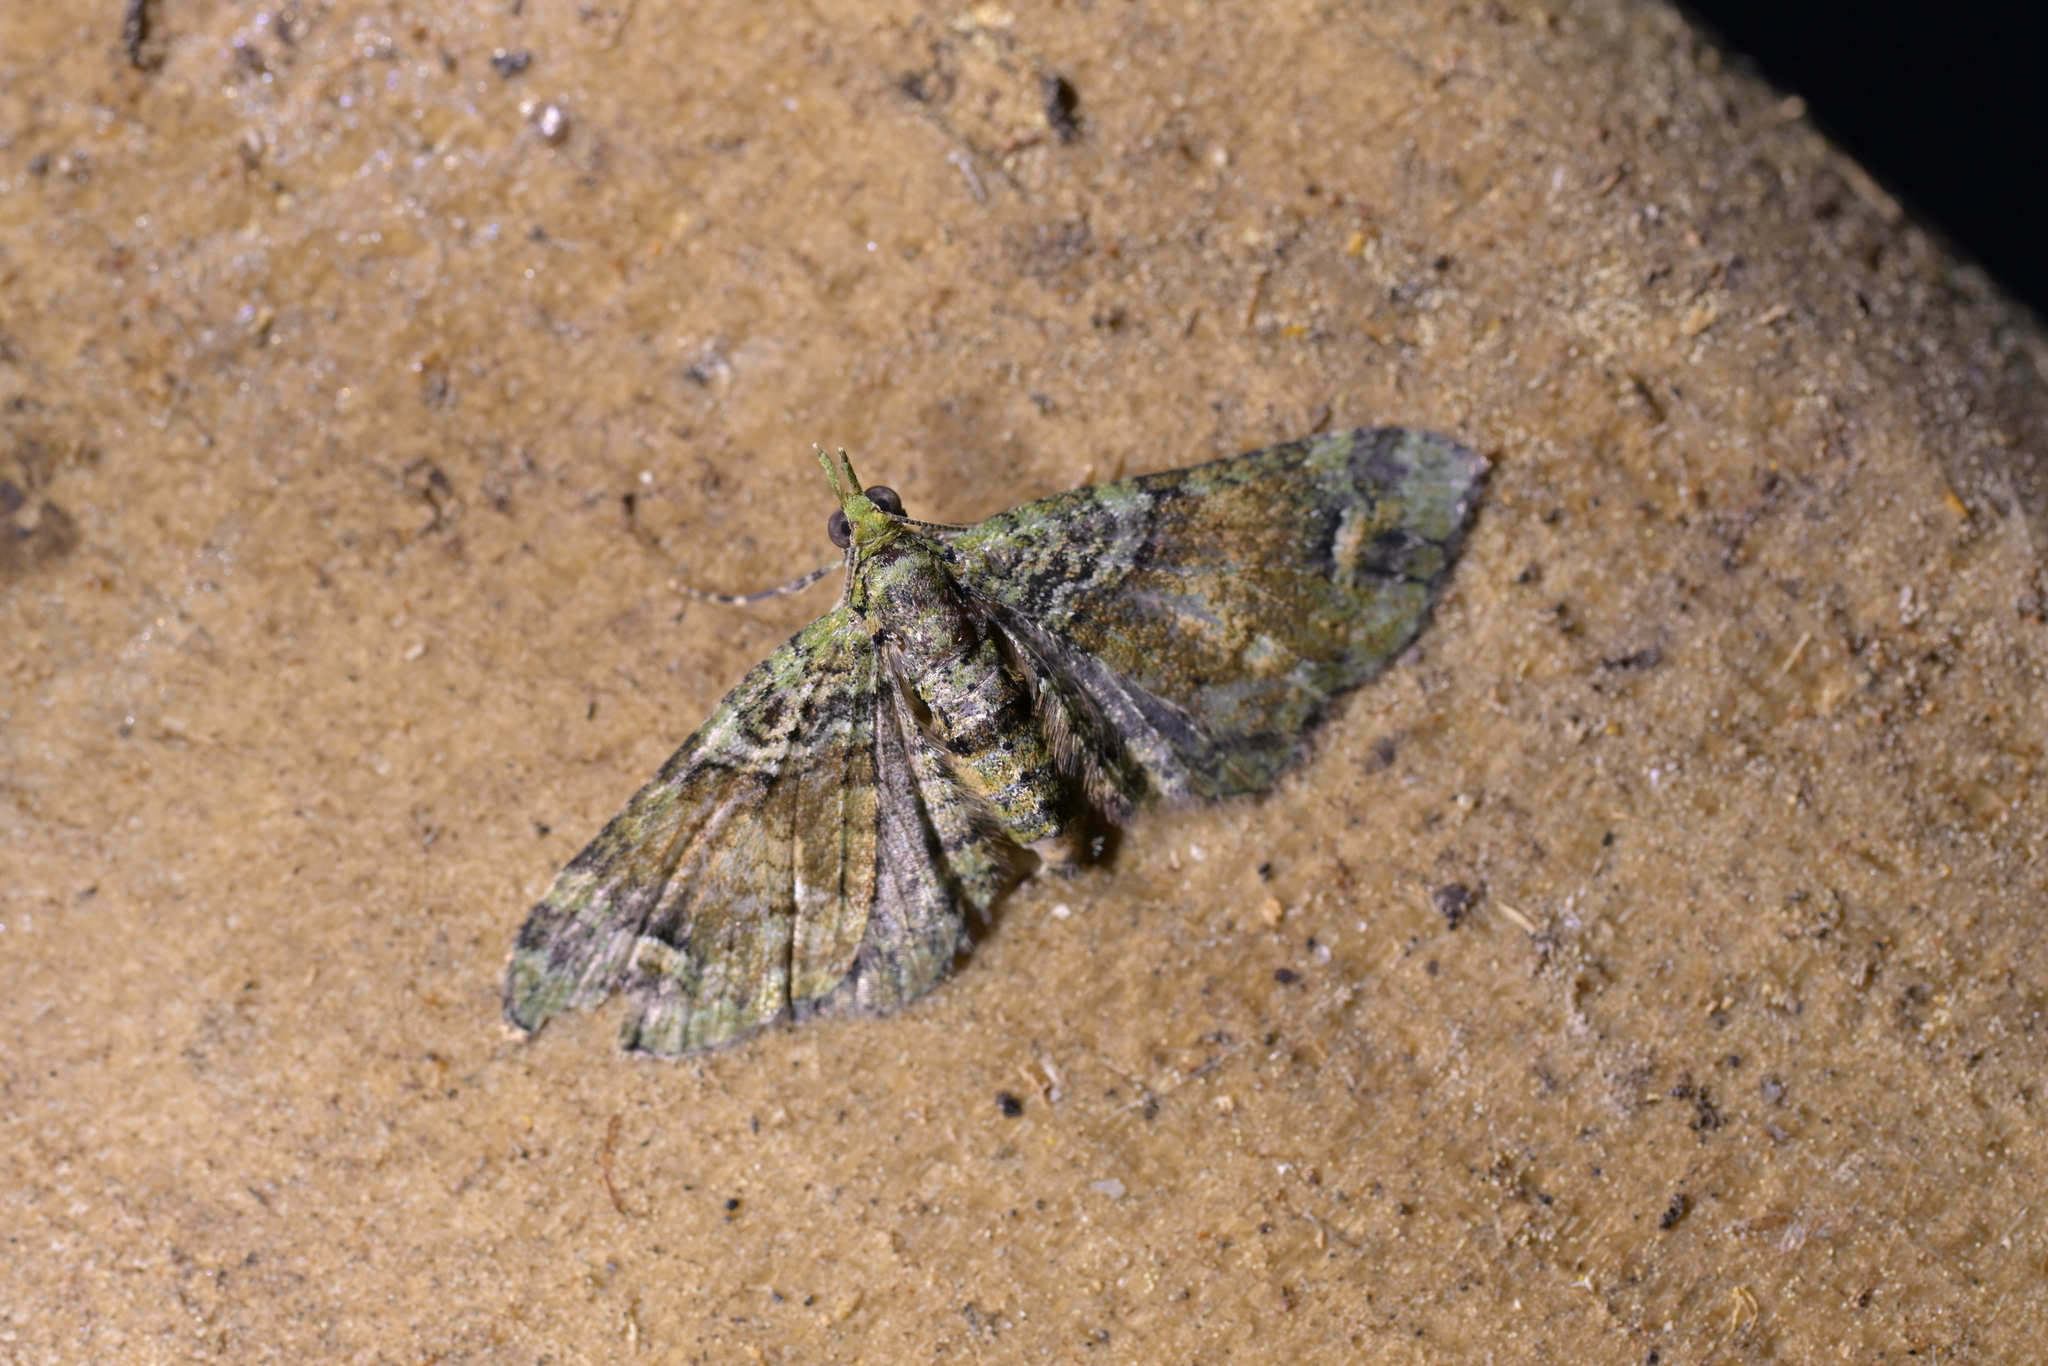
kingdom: Animalia
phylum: Arthropoda
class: Insecta
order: Lepidoptera
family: Geometridae
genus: Idaea
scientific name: Idaea mutanda
